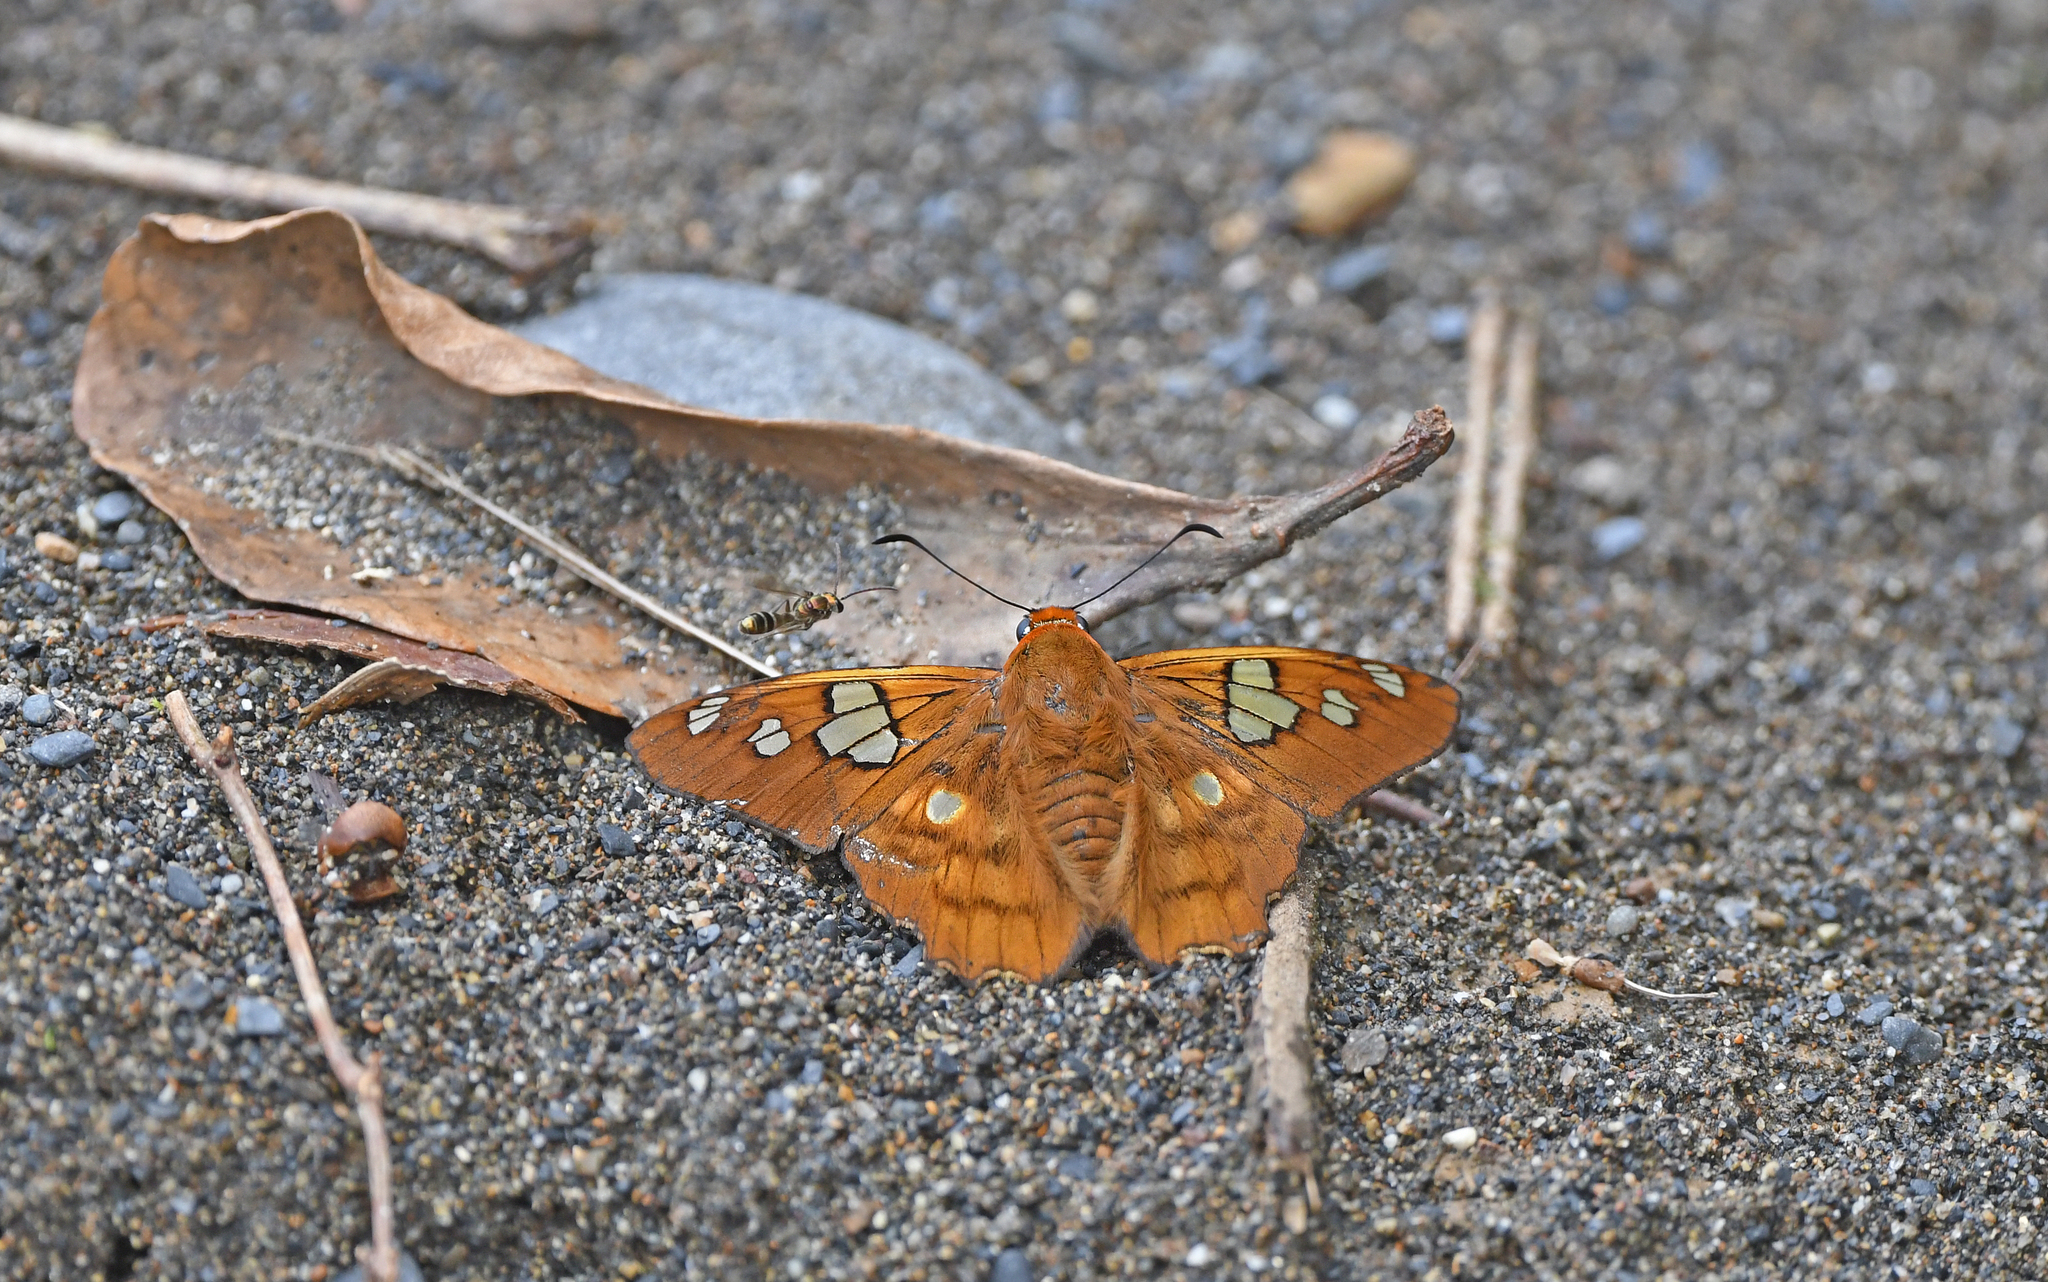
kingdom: Animalia
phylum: Arthropoda
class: Insecta
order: Lepidoptera
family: Hesperiidae
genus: Myscelus
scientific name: Myscelus phoronis
